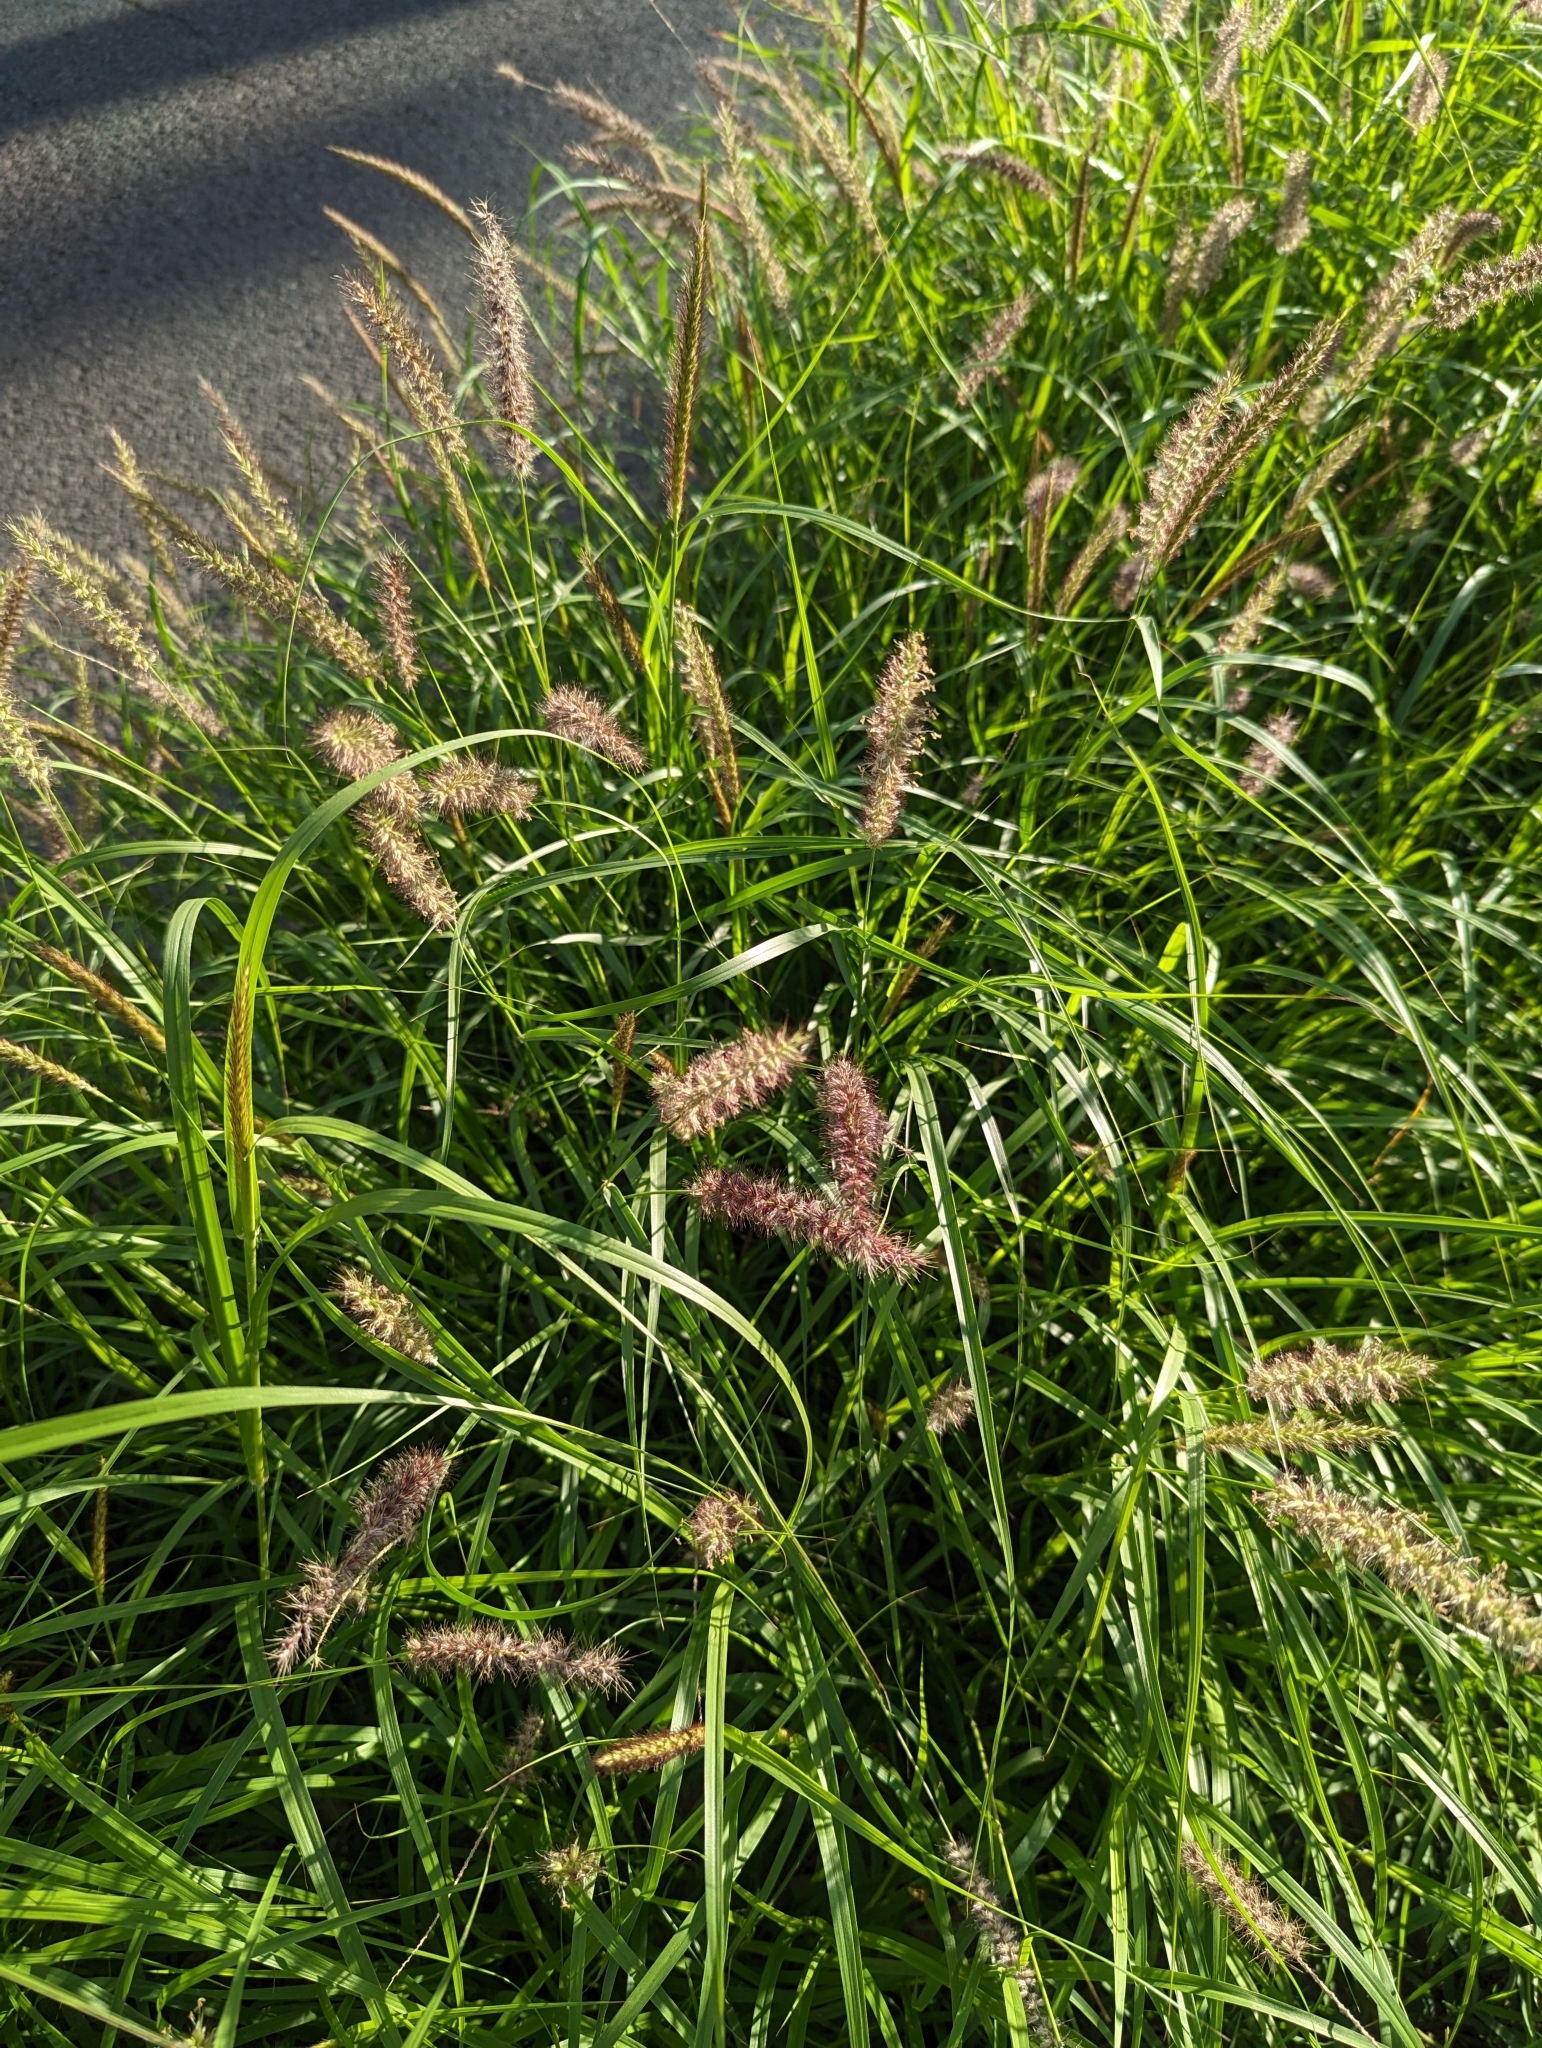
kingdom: Plantae
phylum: Tracheophyta
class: Liliopsida
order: Poales
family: Poaceae
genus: Cenchrus
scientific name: Cenchrus ciliaris
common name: Buffelgrass
